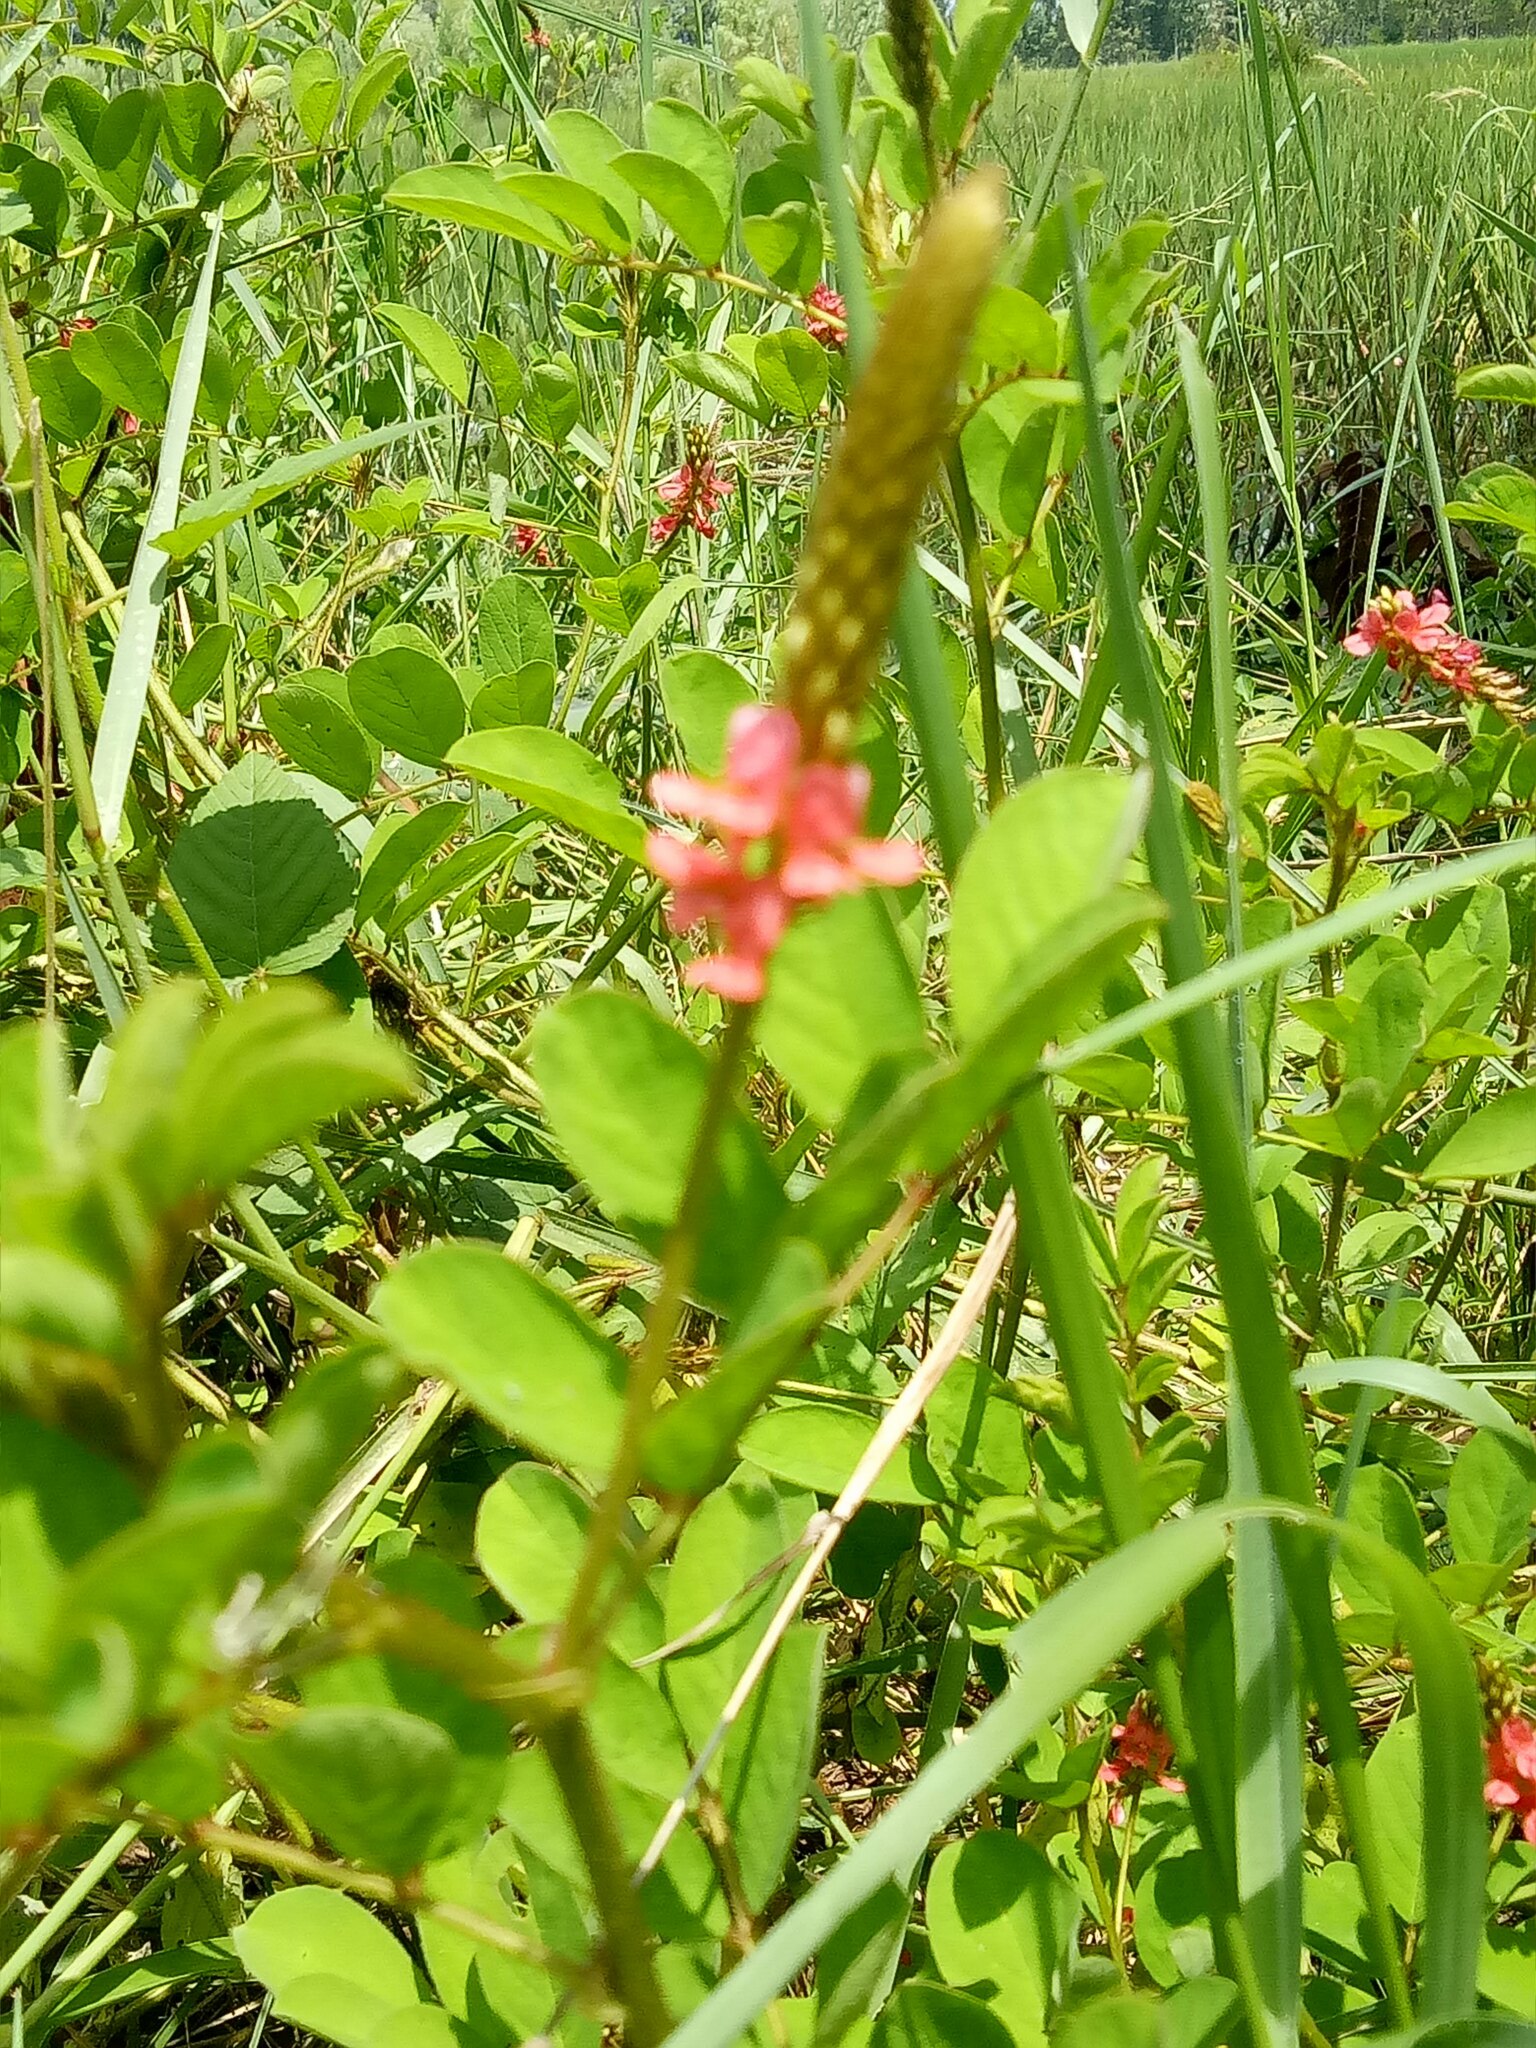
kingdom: Plantae
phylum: Tracheophyta
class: Magnoliopsida
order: Fabales
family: Fabaceae
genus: Indigofera
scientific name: Indigofera hirsuta
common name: Hairy indigo
